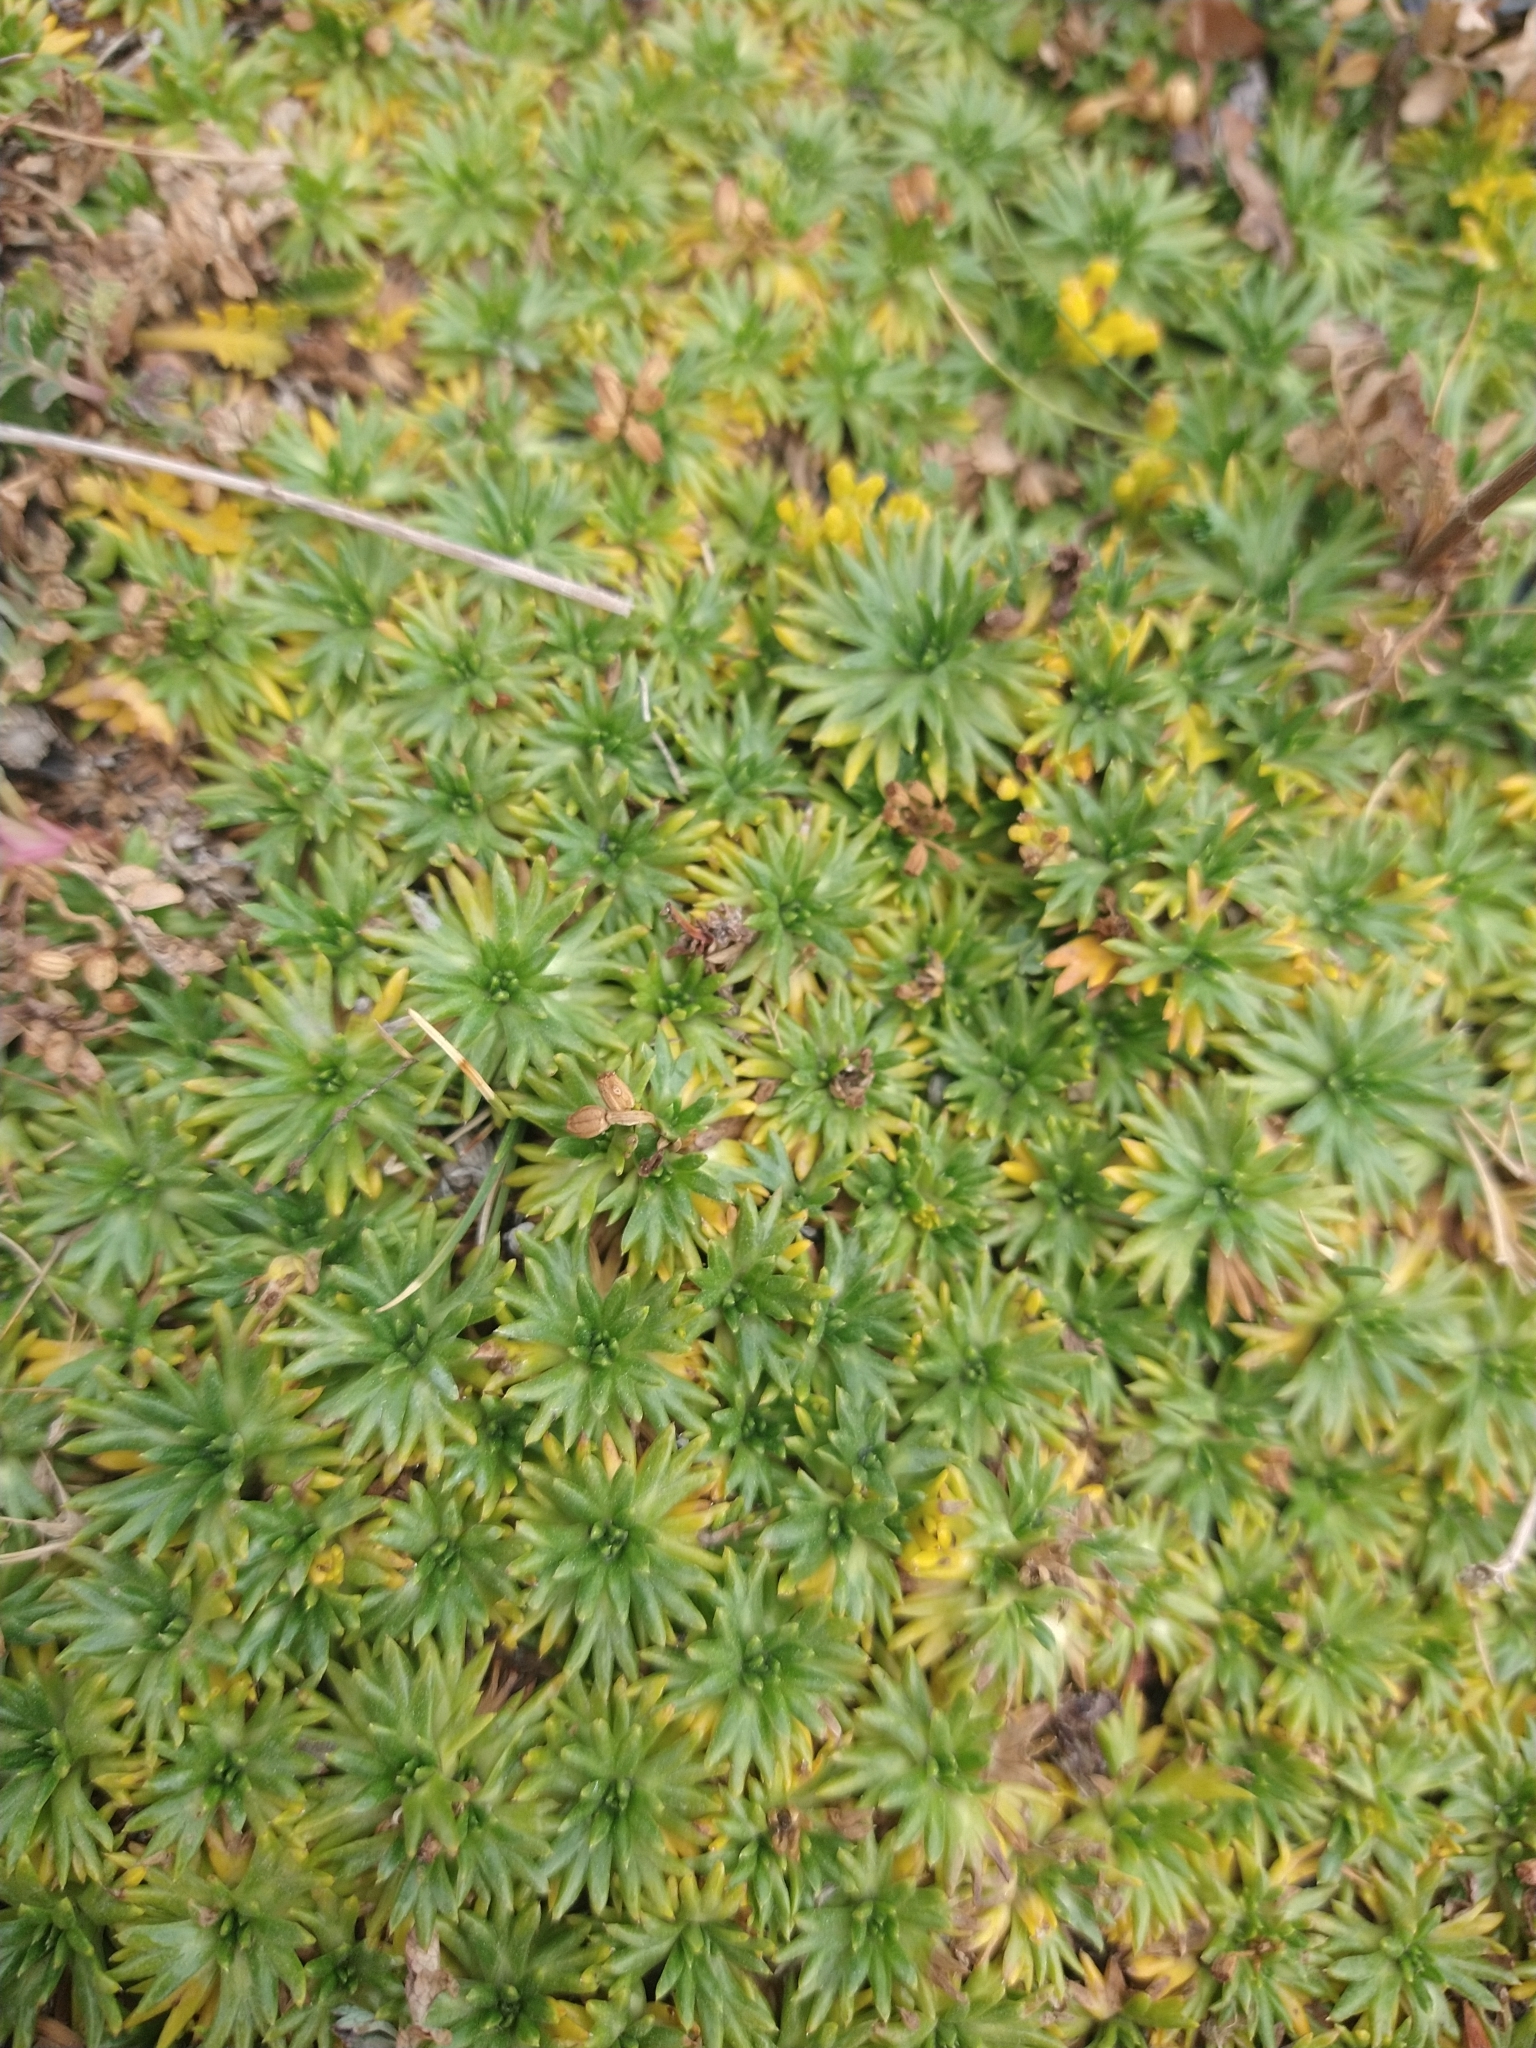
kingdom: Plantae
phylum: Tracheophyta
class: Magnoliopsida
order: Apiales
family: Apiaceae
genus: Azorella
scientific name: Azorella trifurcata
